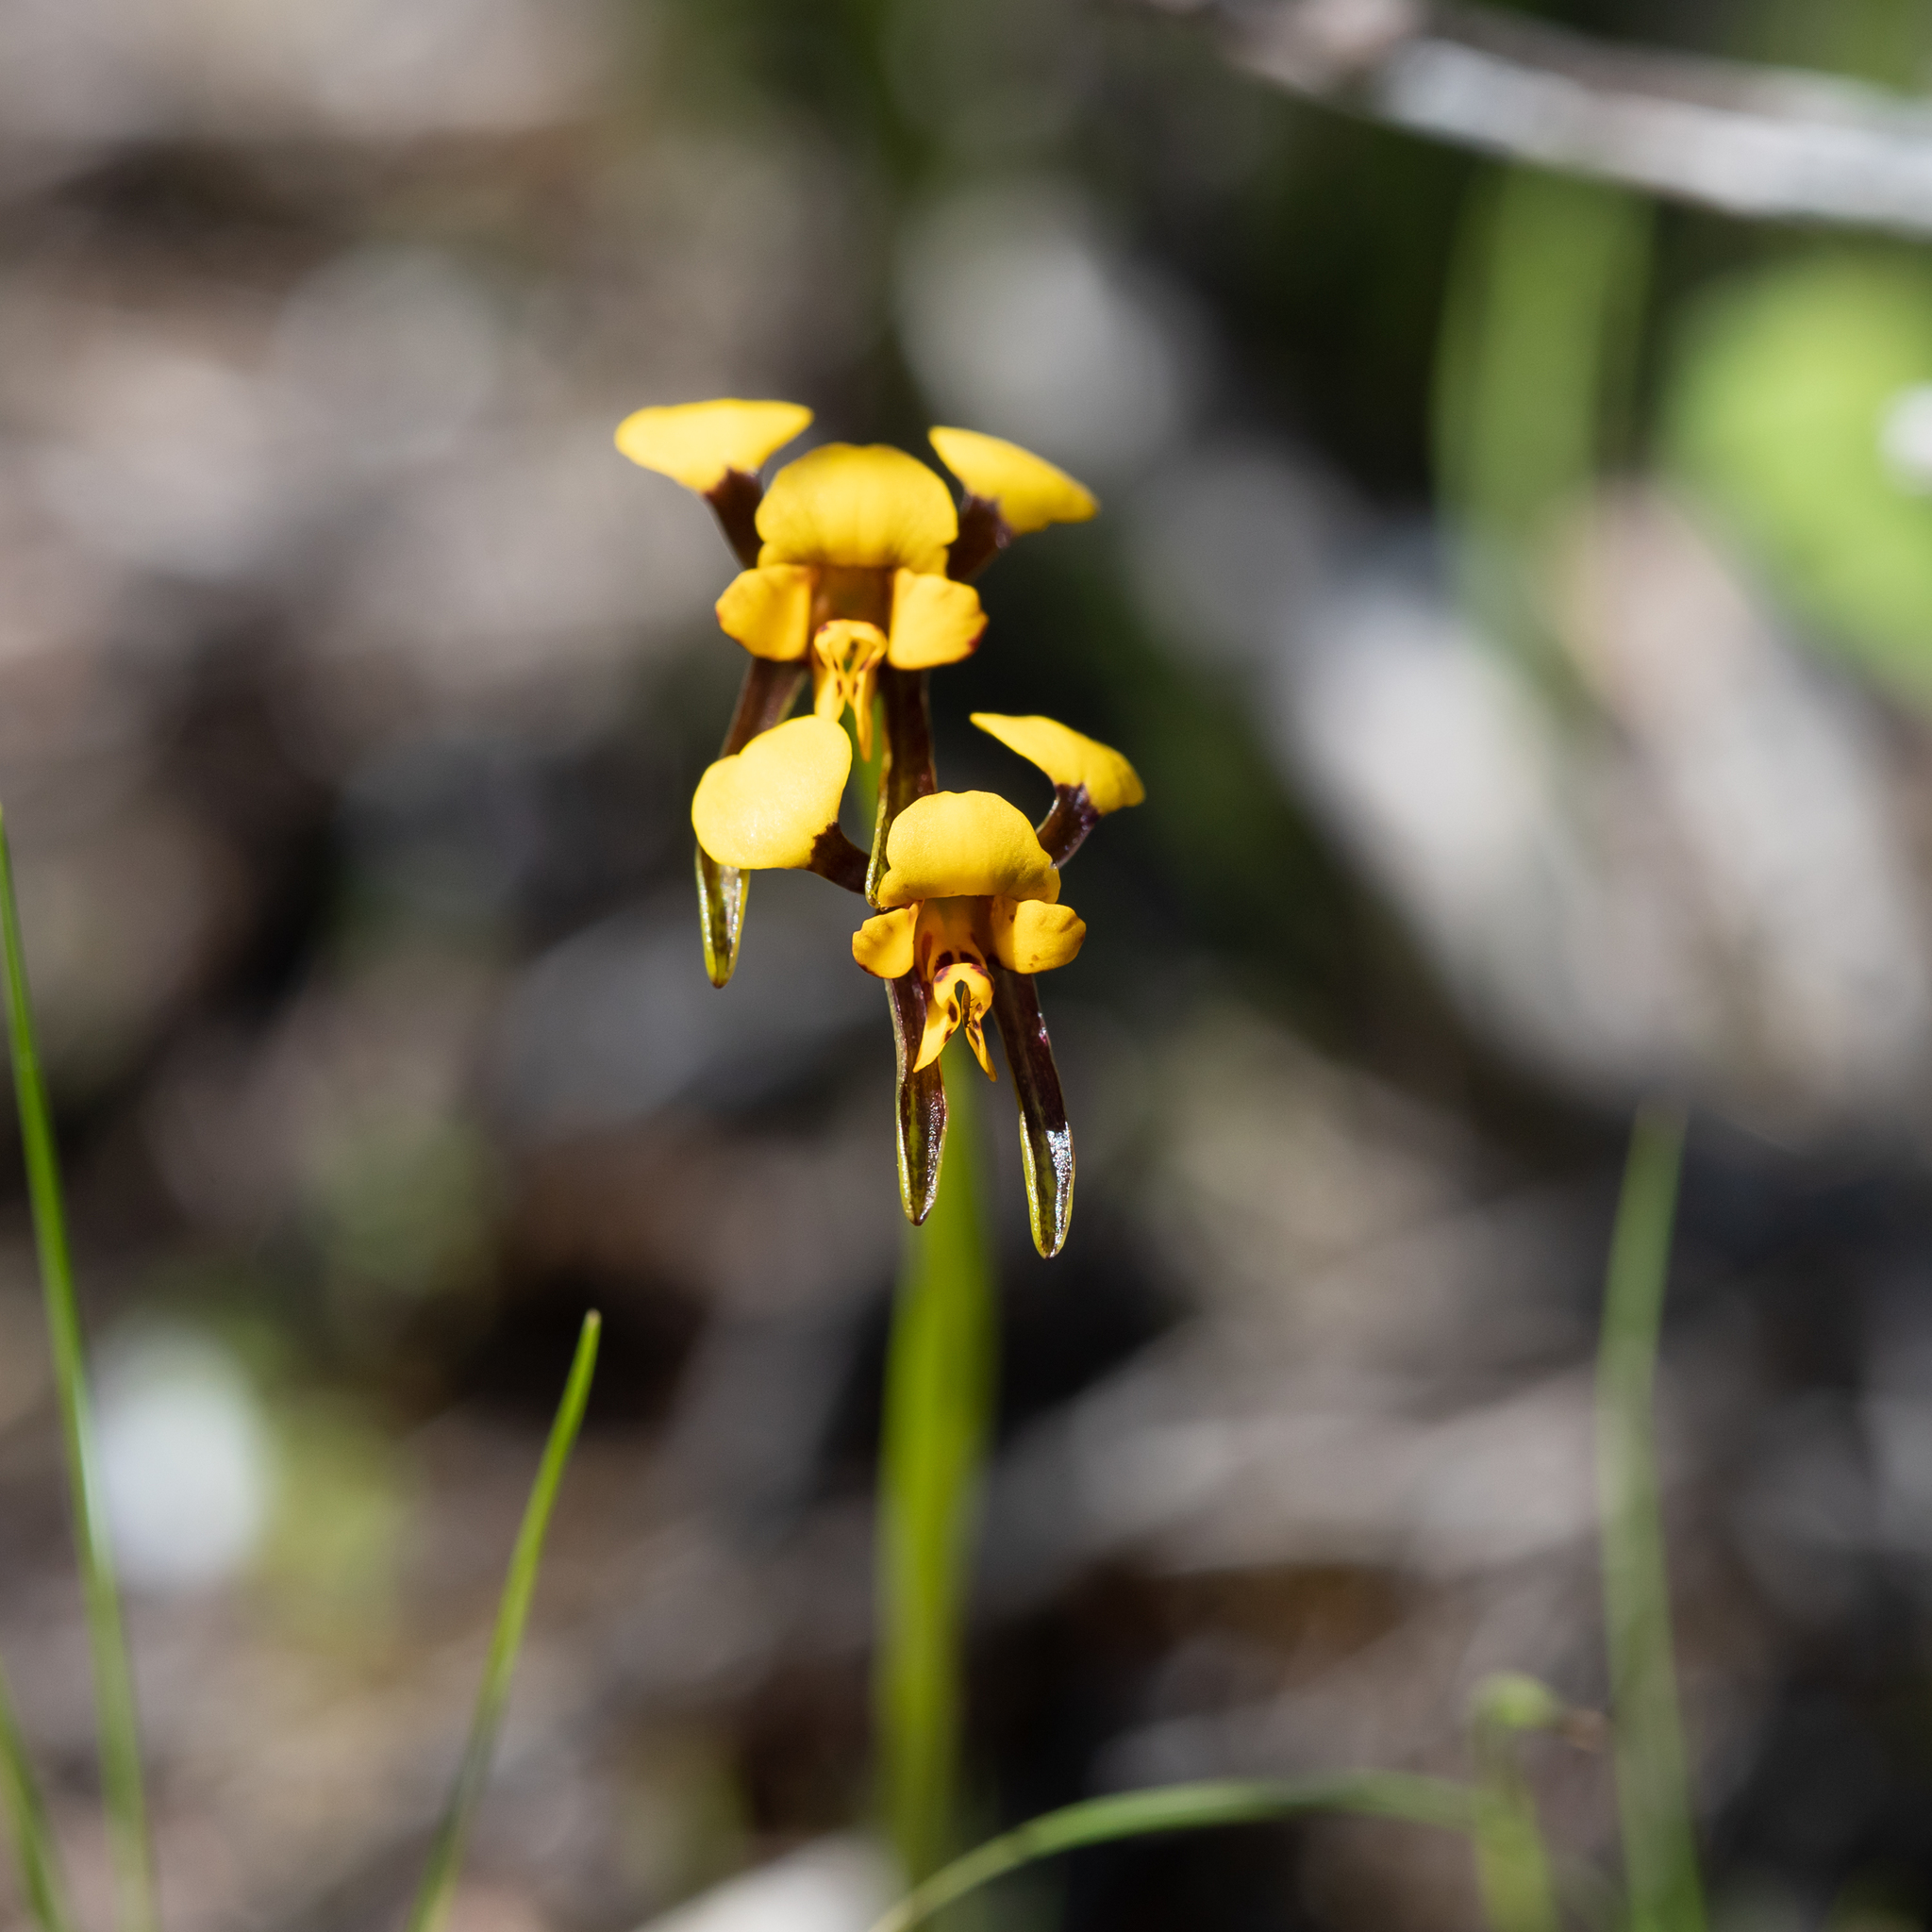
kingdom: Plantae
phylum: Tracheophyta
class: Liliopsida
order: Asparagales
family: Orchidaceae
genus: Diuris
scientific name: Diuris palustris
